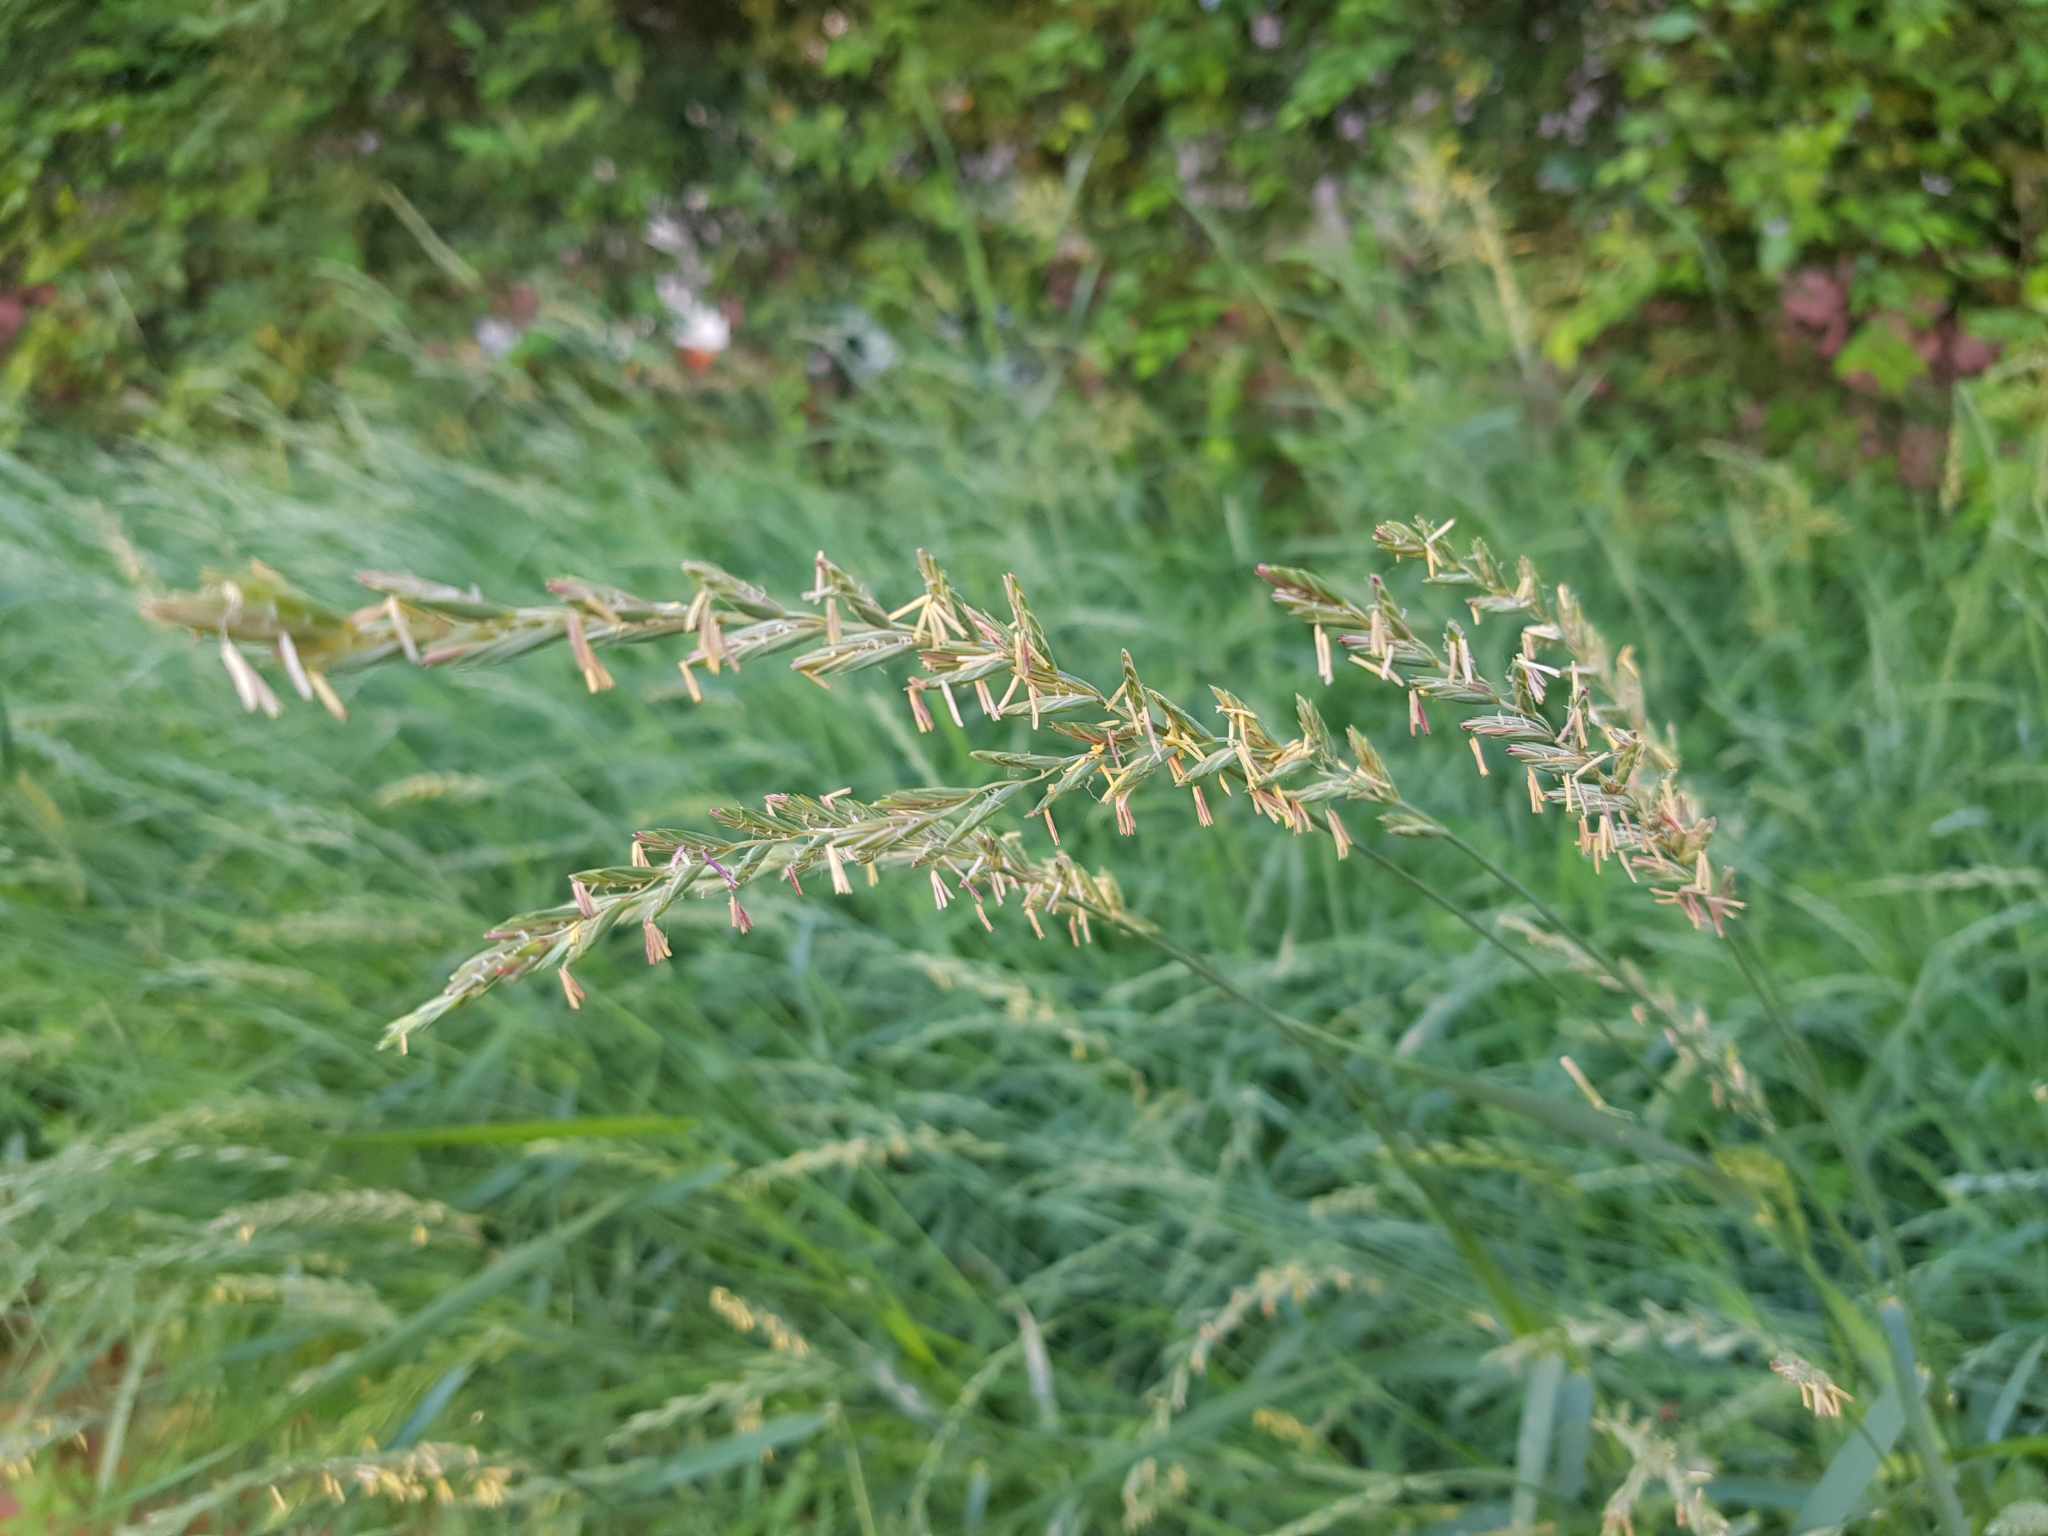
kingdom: Plantae
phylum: Tracheophyta
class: Liliopsida
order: Poales
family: Poaceae
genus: Elymus
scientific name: Elymus repens
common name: Quackgrass
